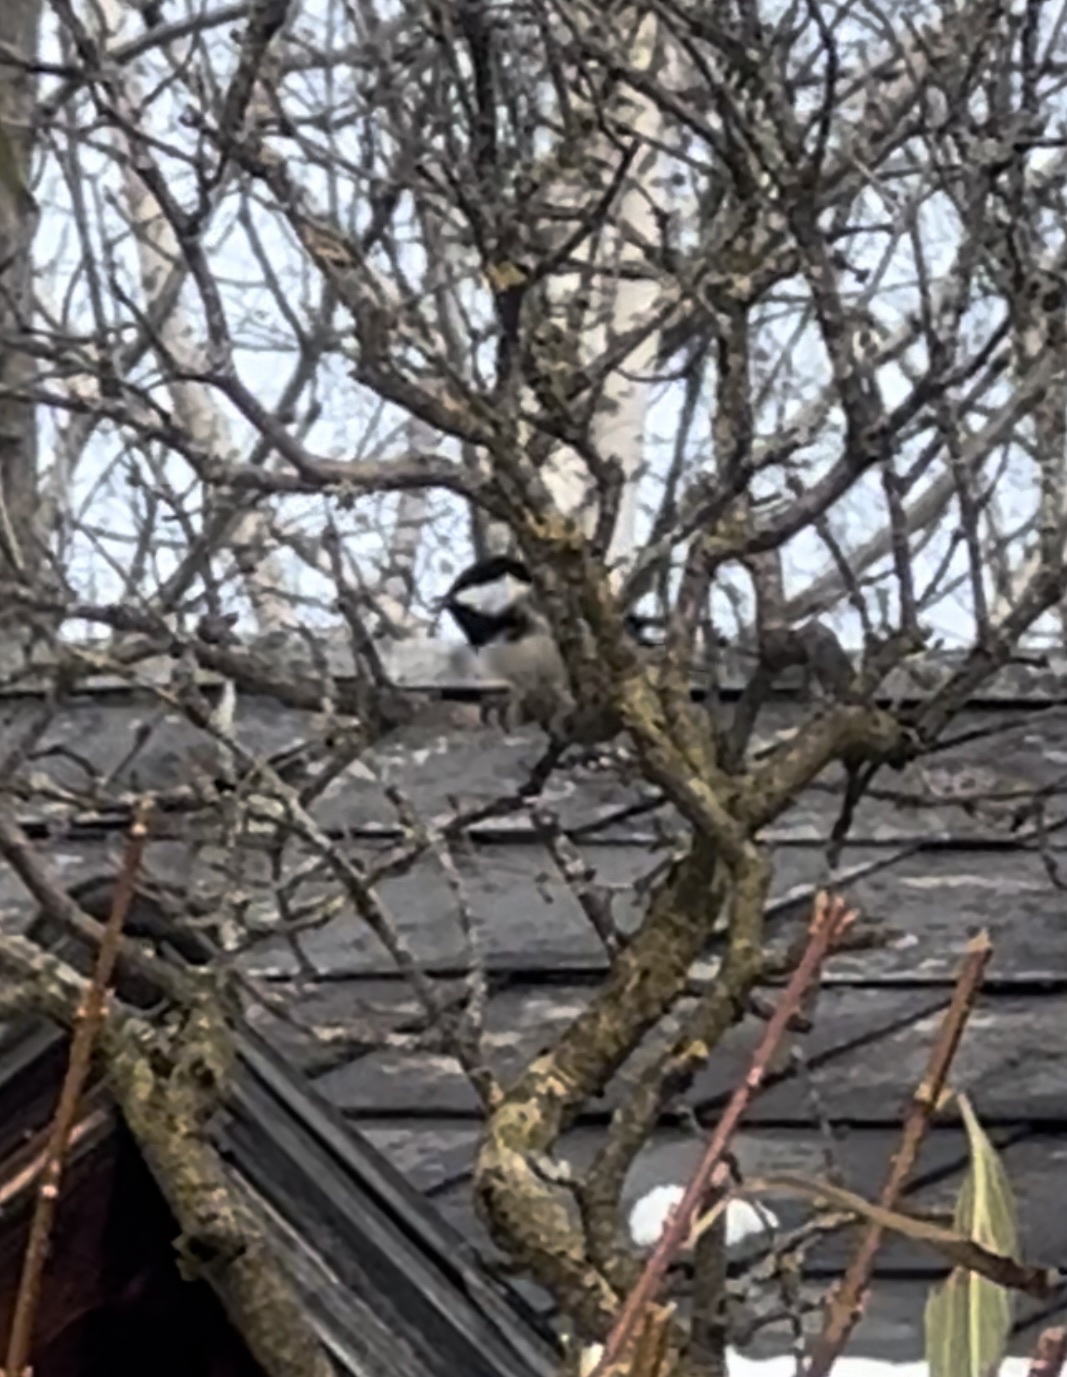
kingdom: Animalia
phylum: Chordata
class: Aves
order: Passeriformes
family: Paridae
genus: Periparus
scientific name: Periparus ater
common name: Coal tit
